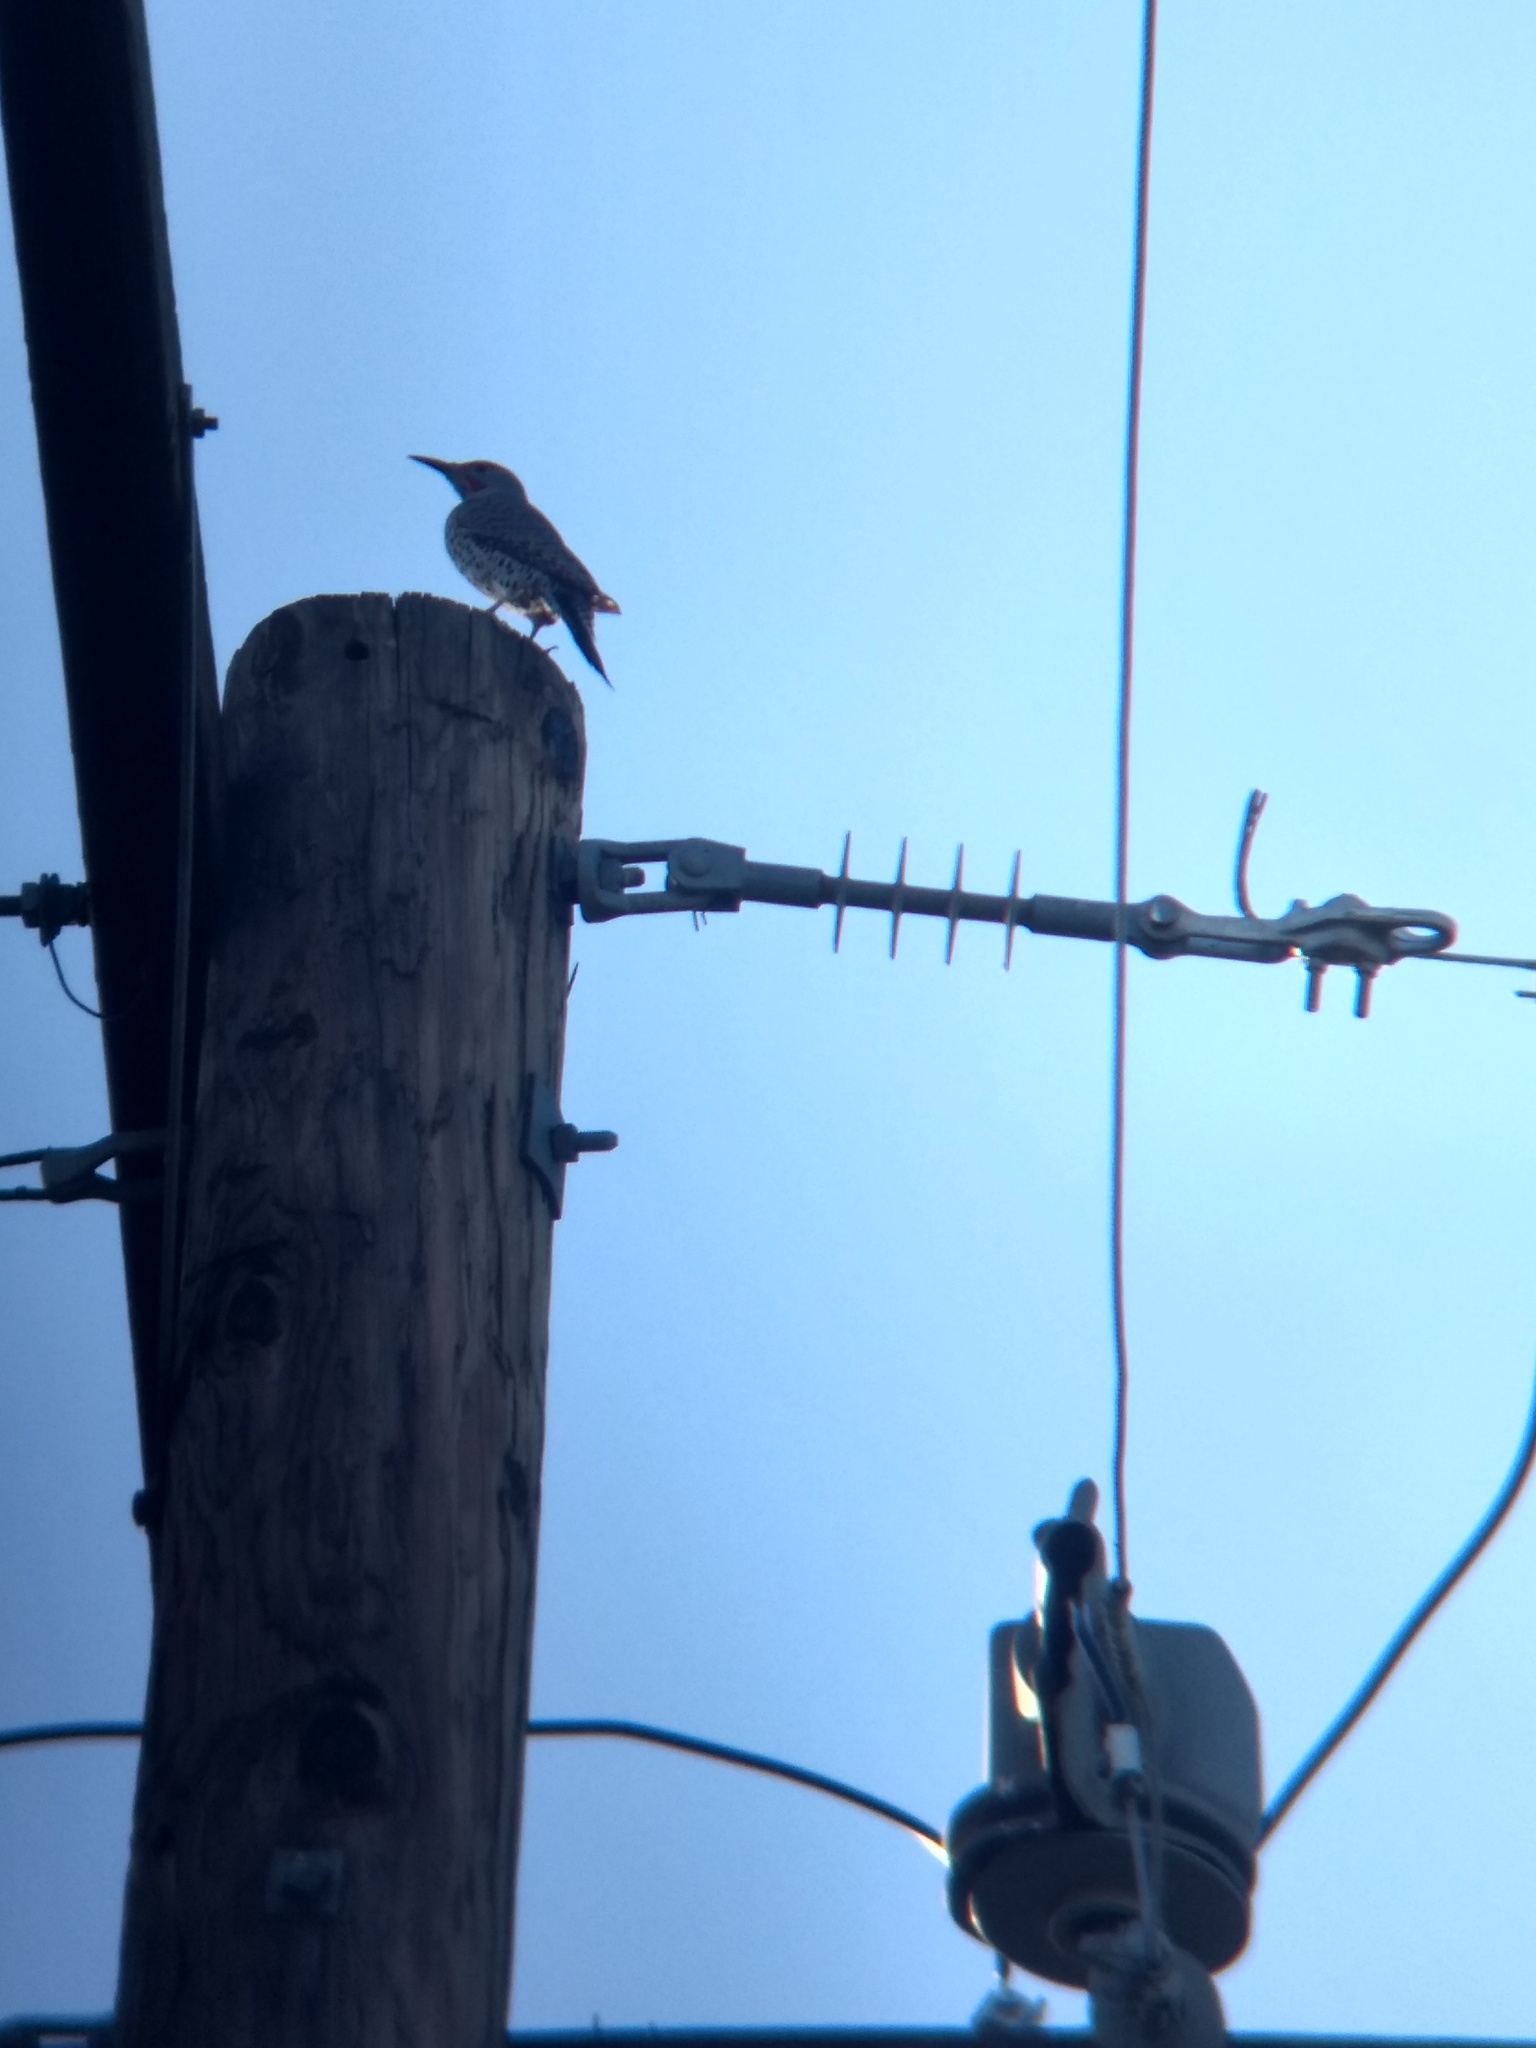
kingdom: Animalia
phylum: Chordata
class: Aves
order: Piciformes
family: Picidae
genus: Colaptes
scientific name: Colaptes auratus
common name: Northern flicker
